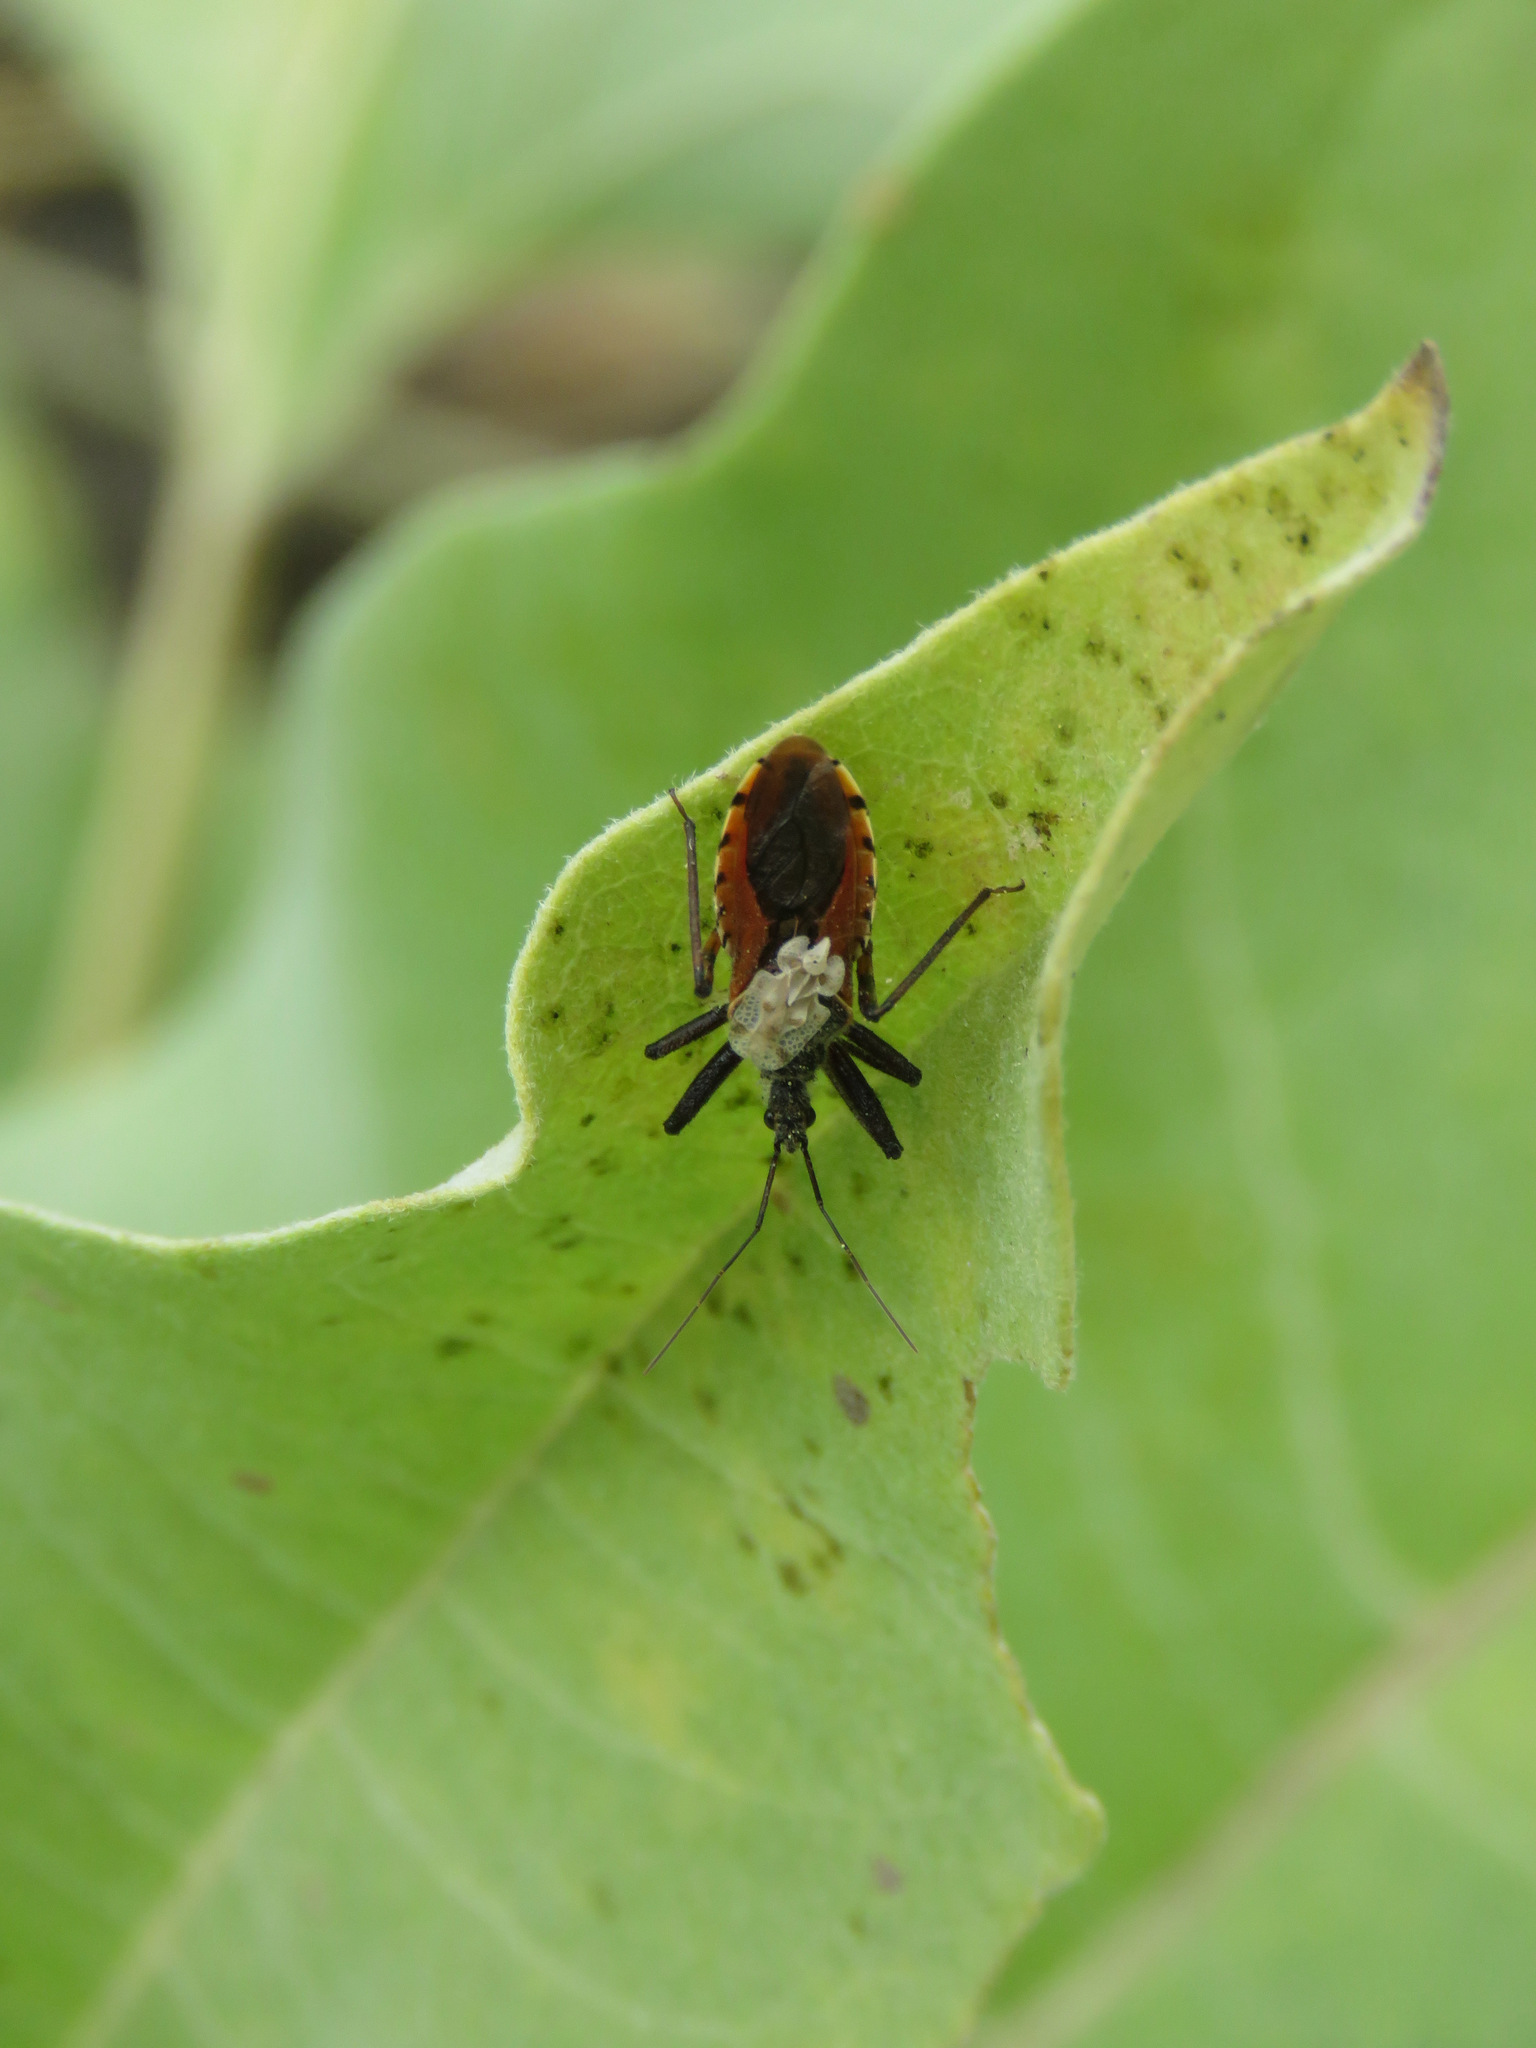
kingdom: Animalia
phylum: Arthropoda
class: Insecta
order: Hemiptera
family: Reduviidae
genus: Rhynocoris
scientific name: Rhynocoris ventralis
